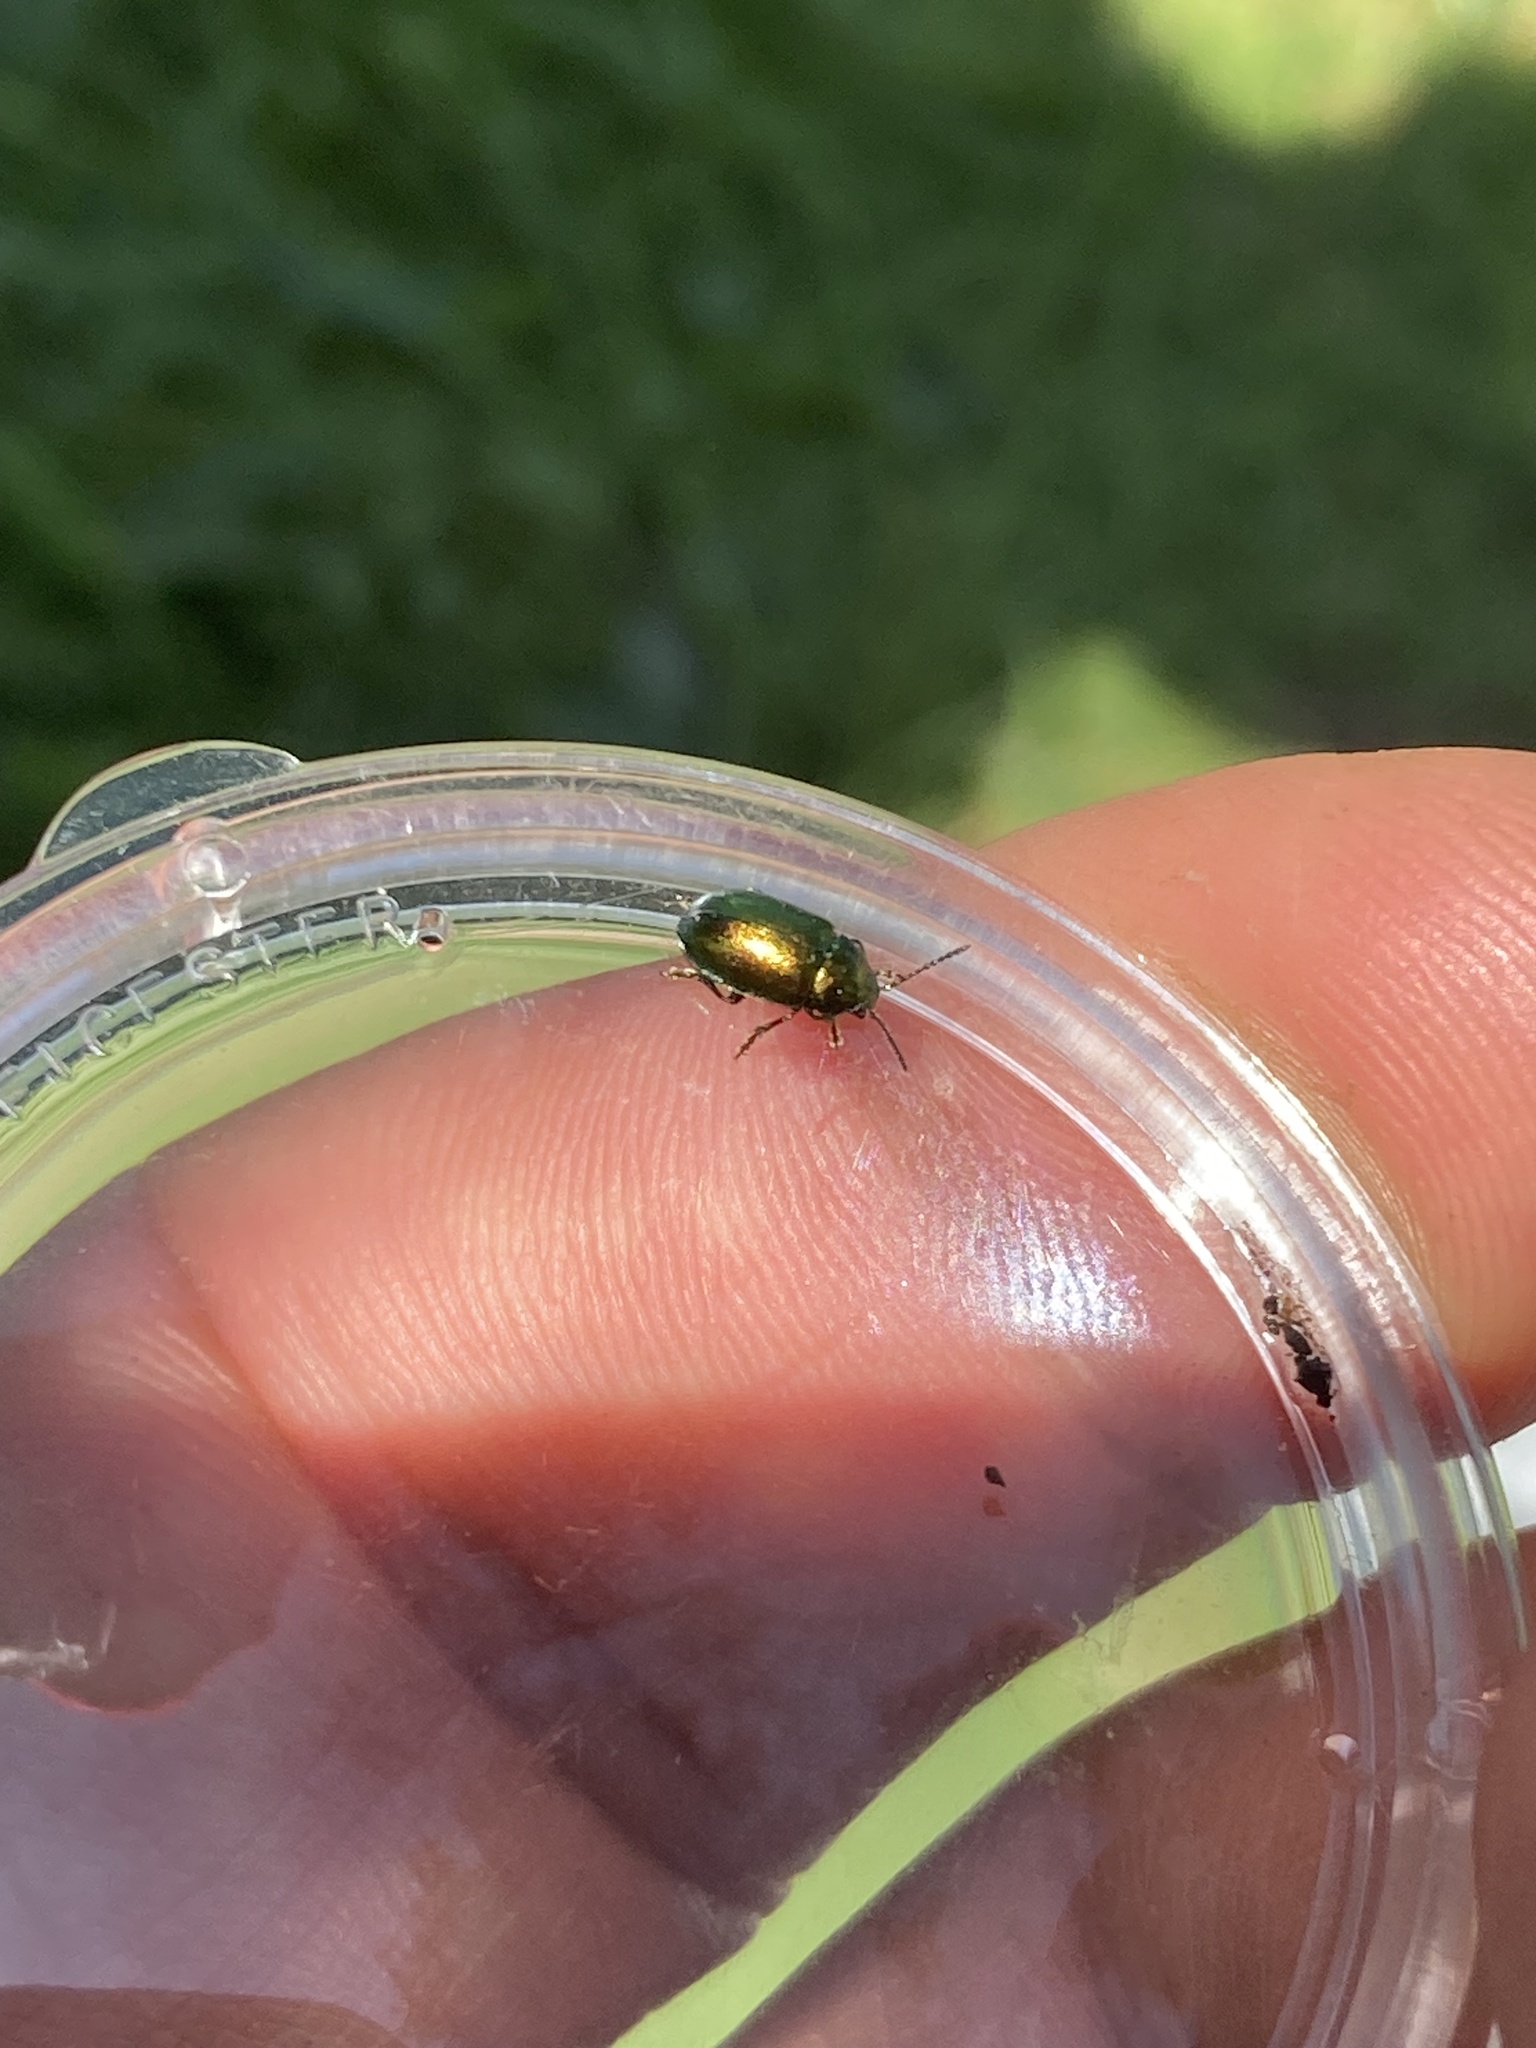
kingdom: Animalia
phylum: Arthropoda
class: Insecta
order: Coleoptera
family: Chrysomelidae
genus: Gastrophysa
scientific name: Gastrophysa viridula
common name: Green dock beetle
